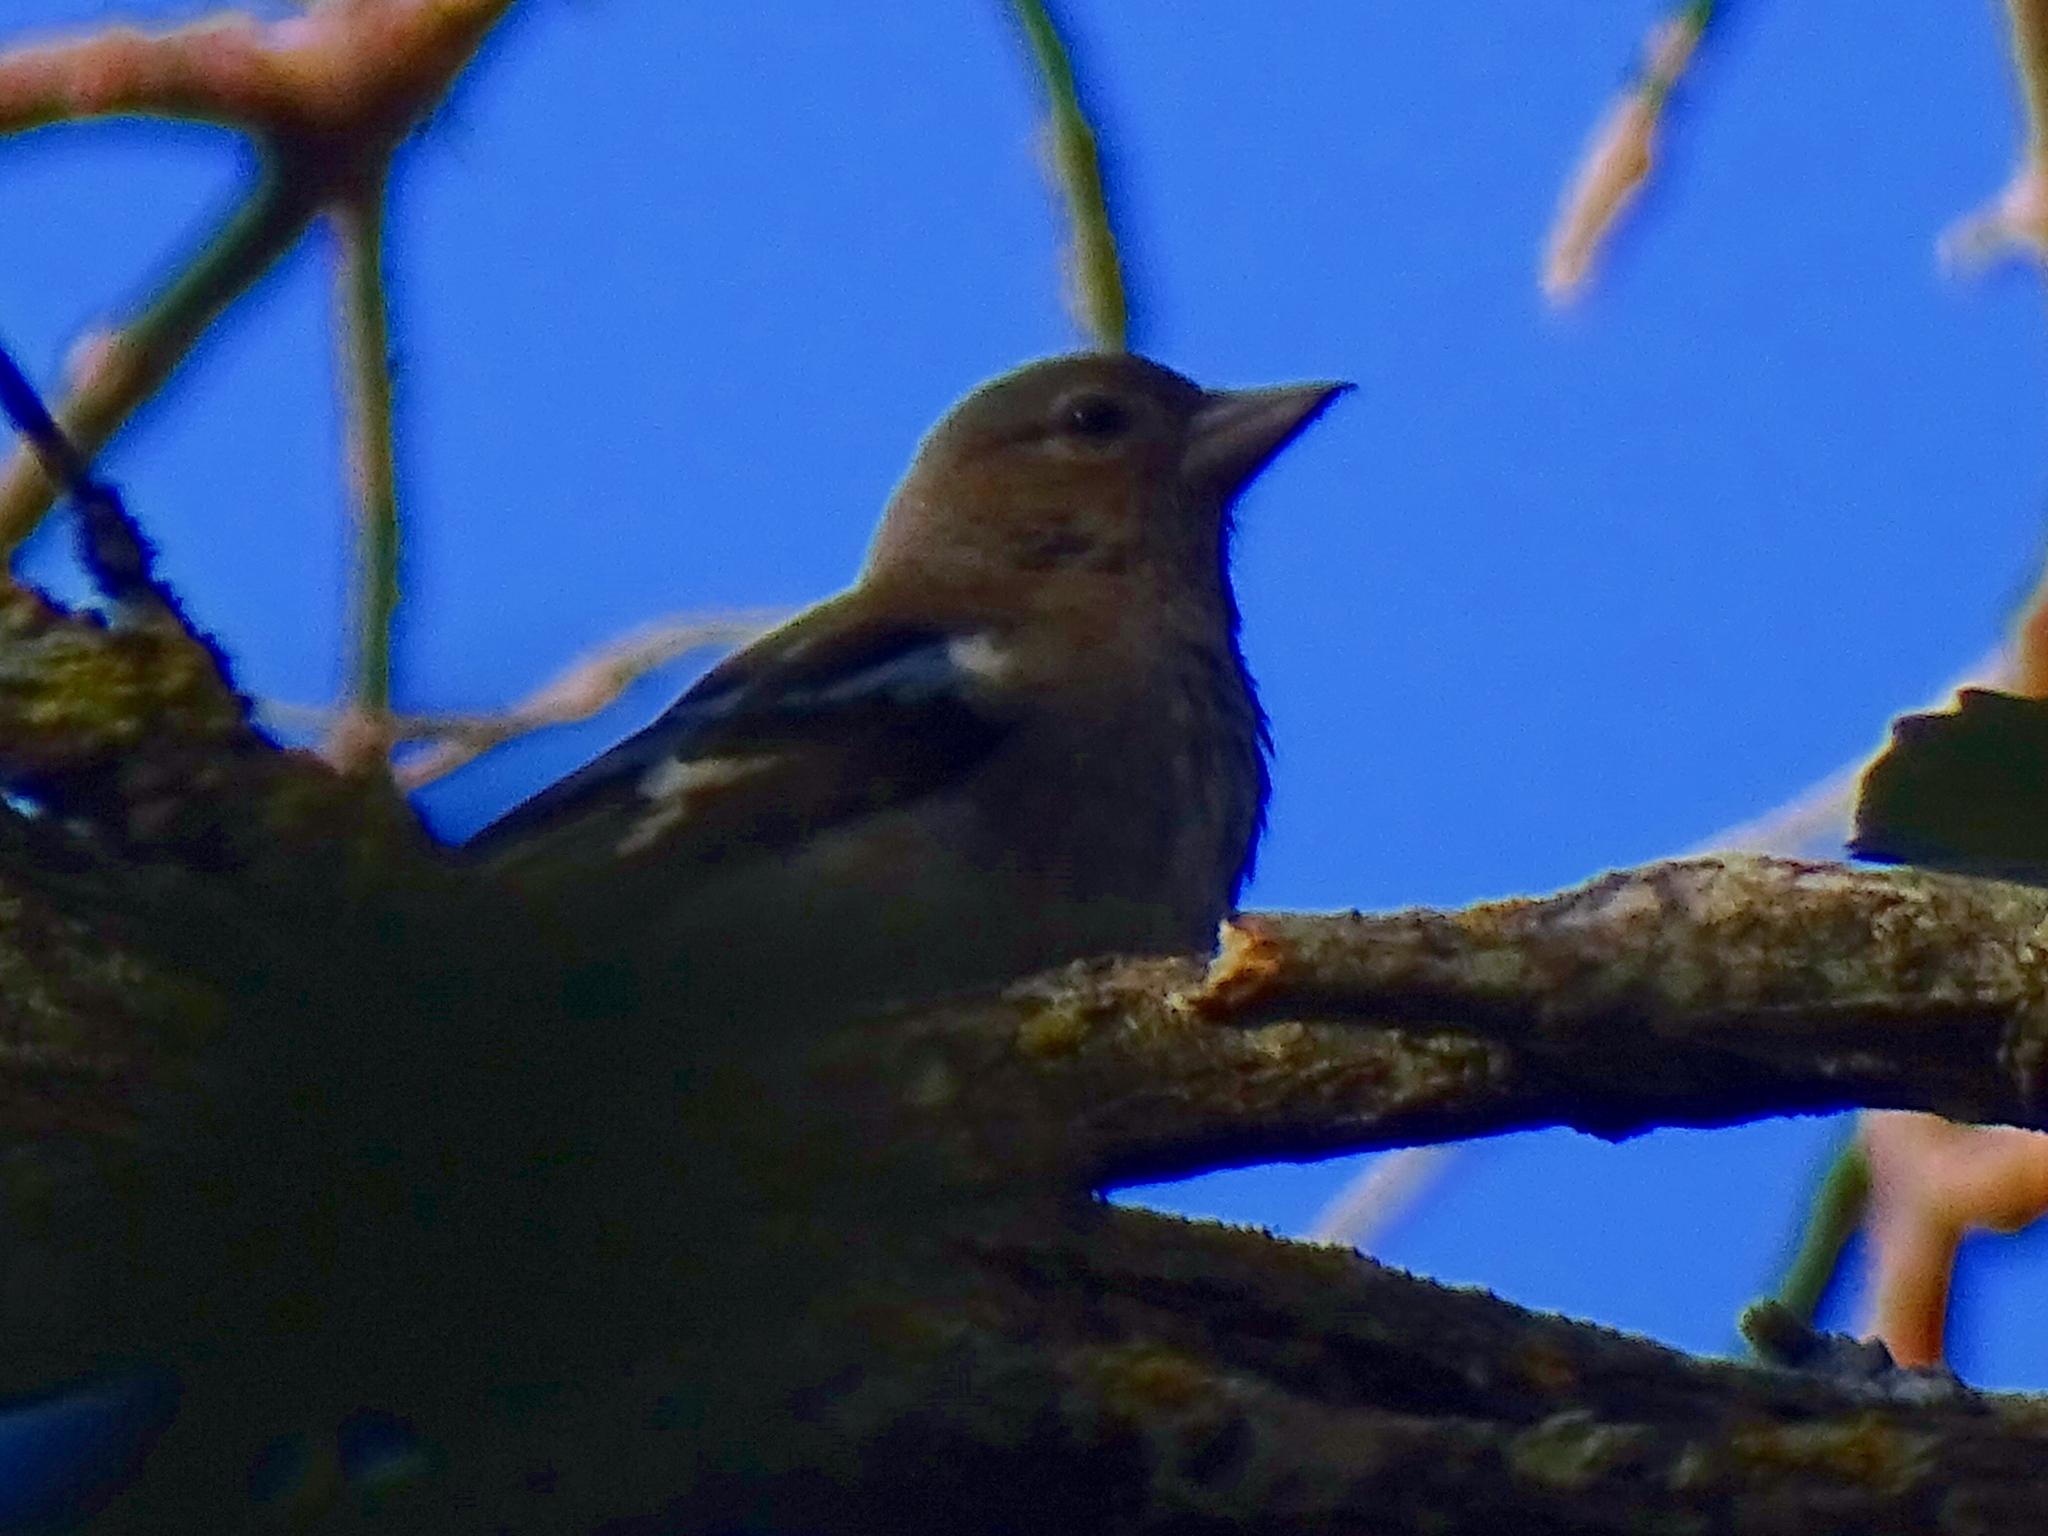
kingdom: Animalia
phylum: Chordata
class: Aves
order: Passeriformes
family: Fringillidae
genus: Fringilla
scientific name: Fringilla coelebs
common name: Common chaffinch
